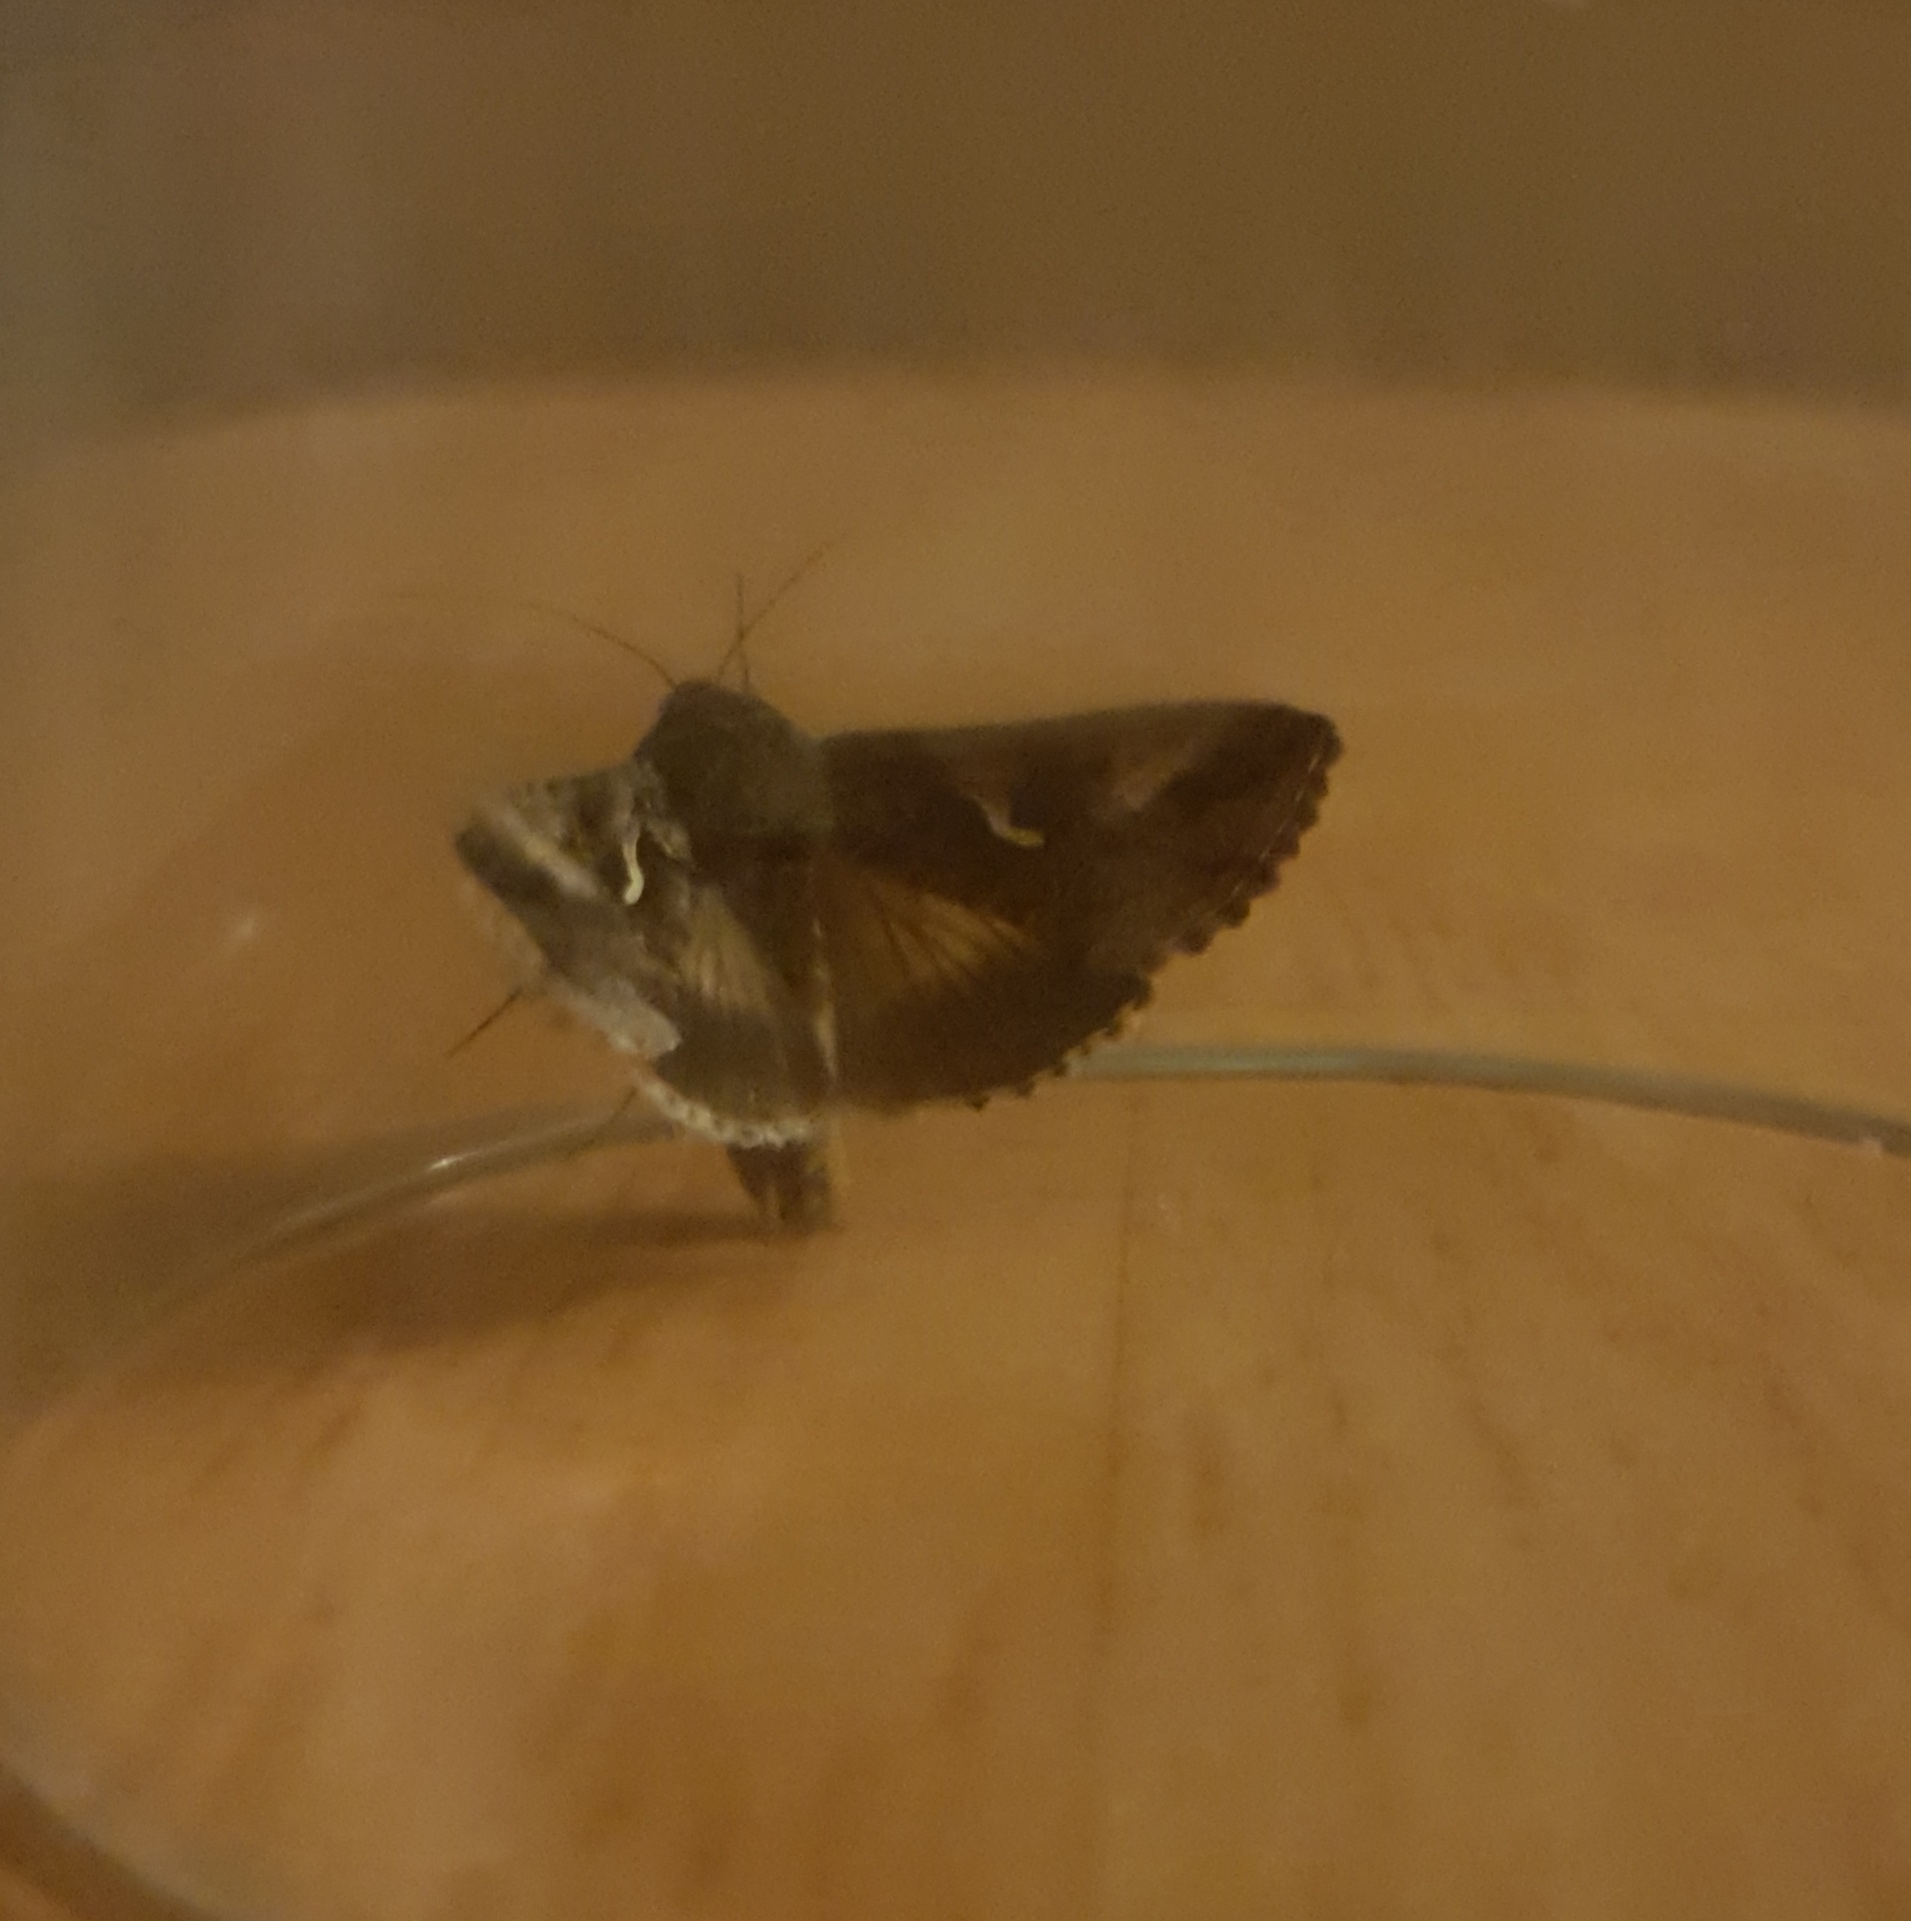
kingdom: Animalia
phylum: Arthropoda
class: Insecta
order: Lepidoptera
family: Noctuidae
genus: Autographa
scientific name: Autographa gamma
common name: Silver y
